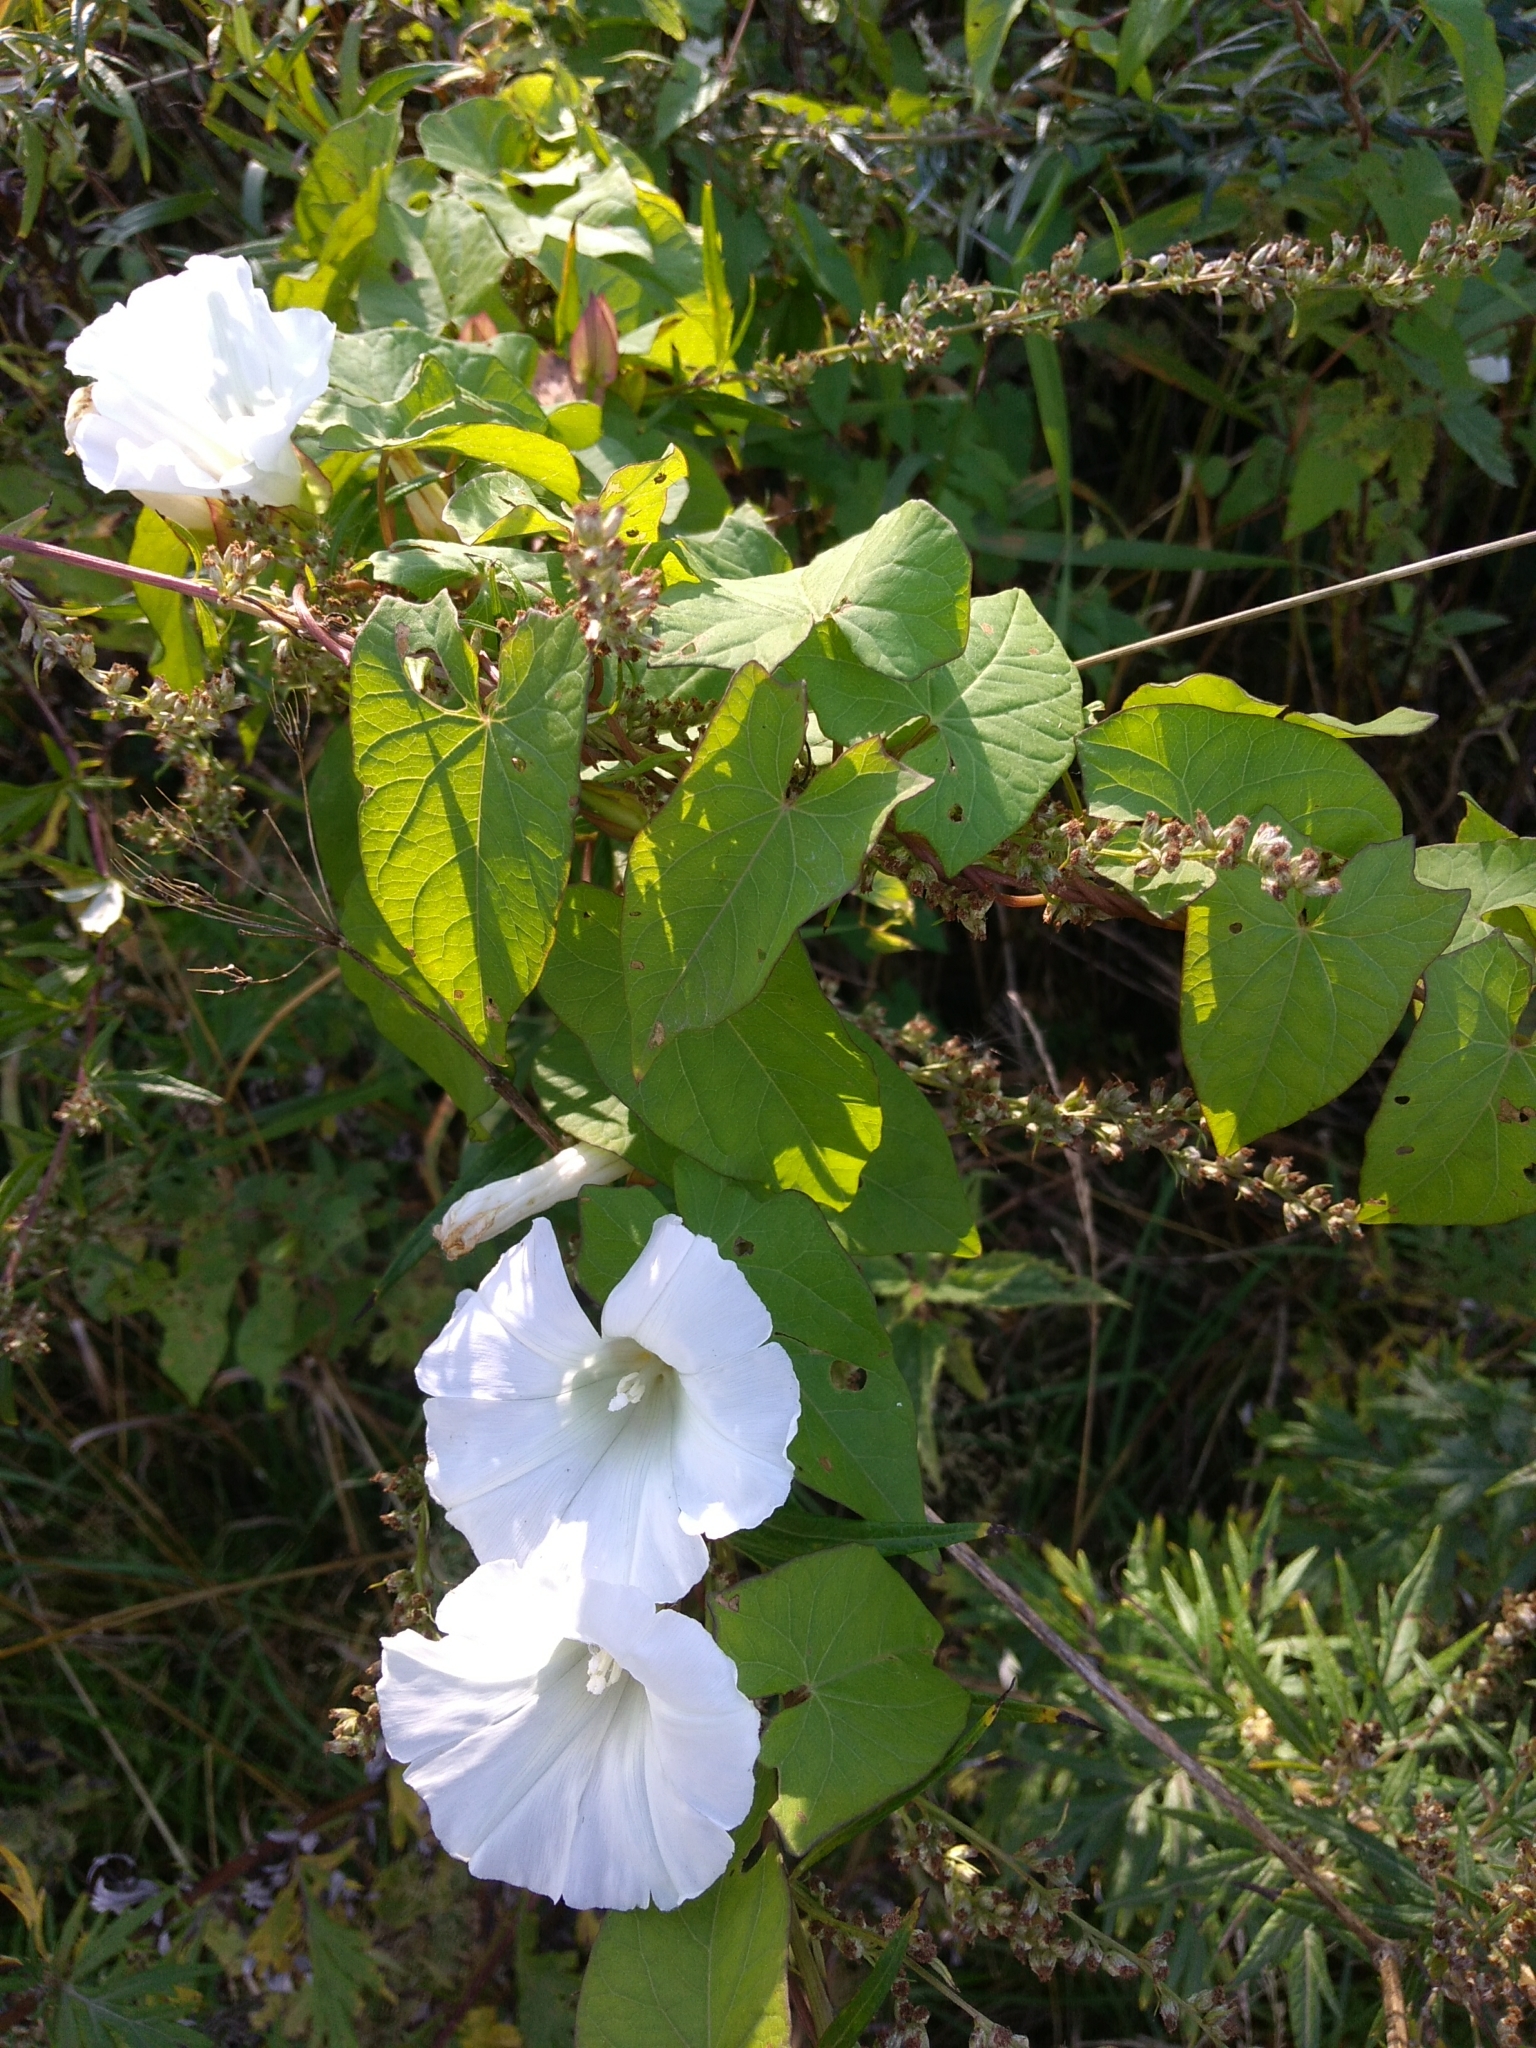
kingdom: Plantae
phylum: Tracheophyta
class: Magnoliopsida
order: Solanales
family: Convolvulaceae
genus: Calystegia
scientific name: Calystegia sepium
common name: Hedge bindweed
